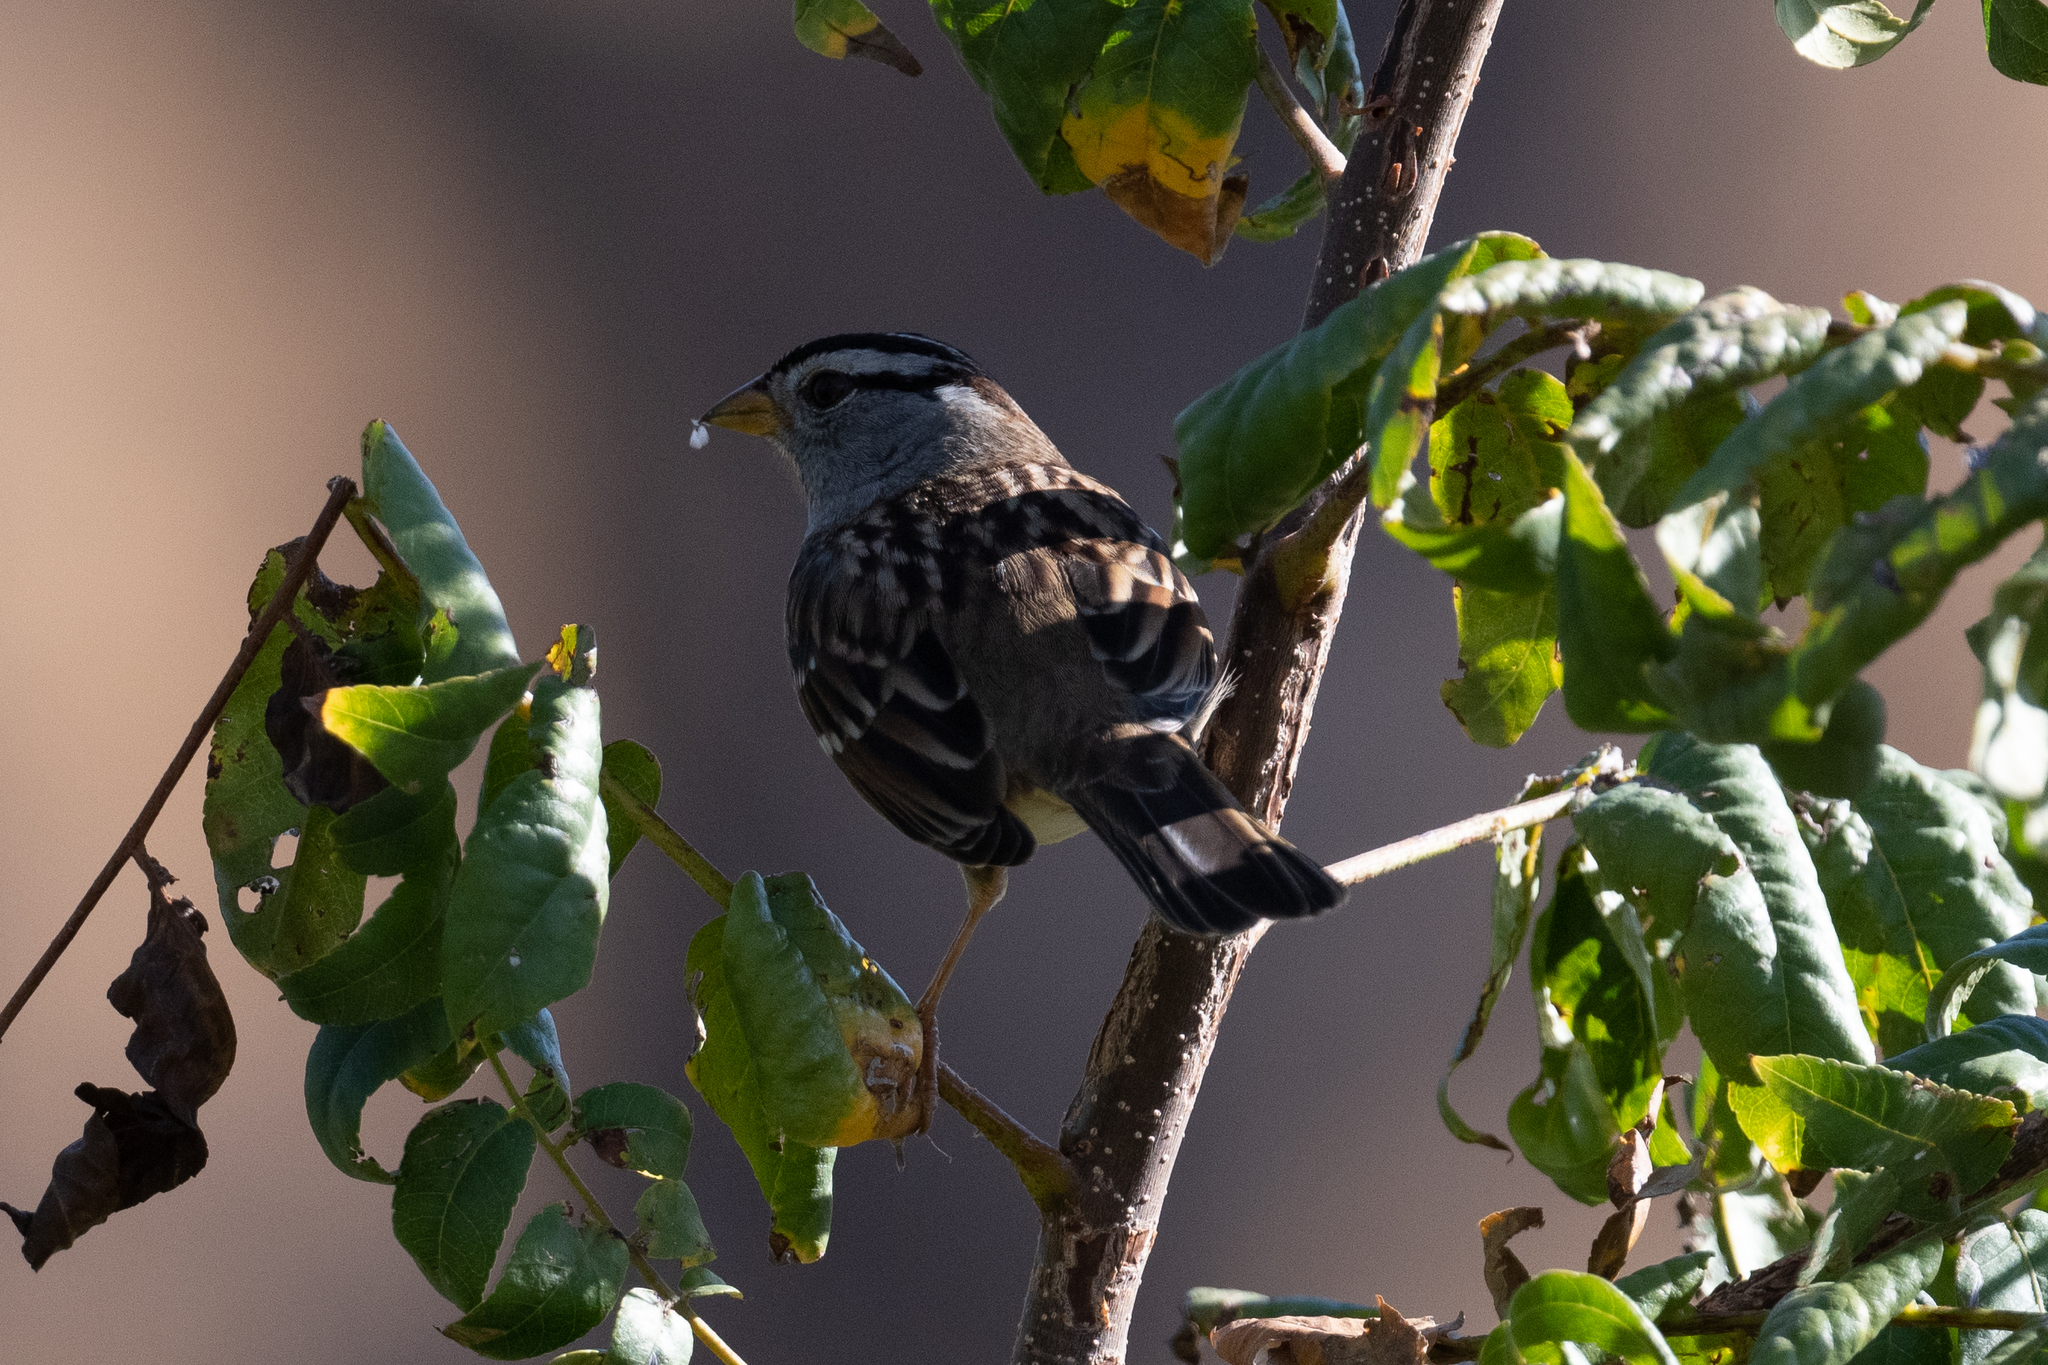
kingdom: Animalia
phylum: Chordata
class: Aves
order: Passeriformes
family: Passerellidae
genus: Zonotrichia
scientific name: Zonotrichia leucophrys
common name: White-crowned sparrow
